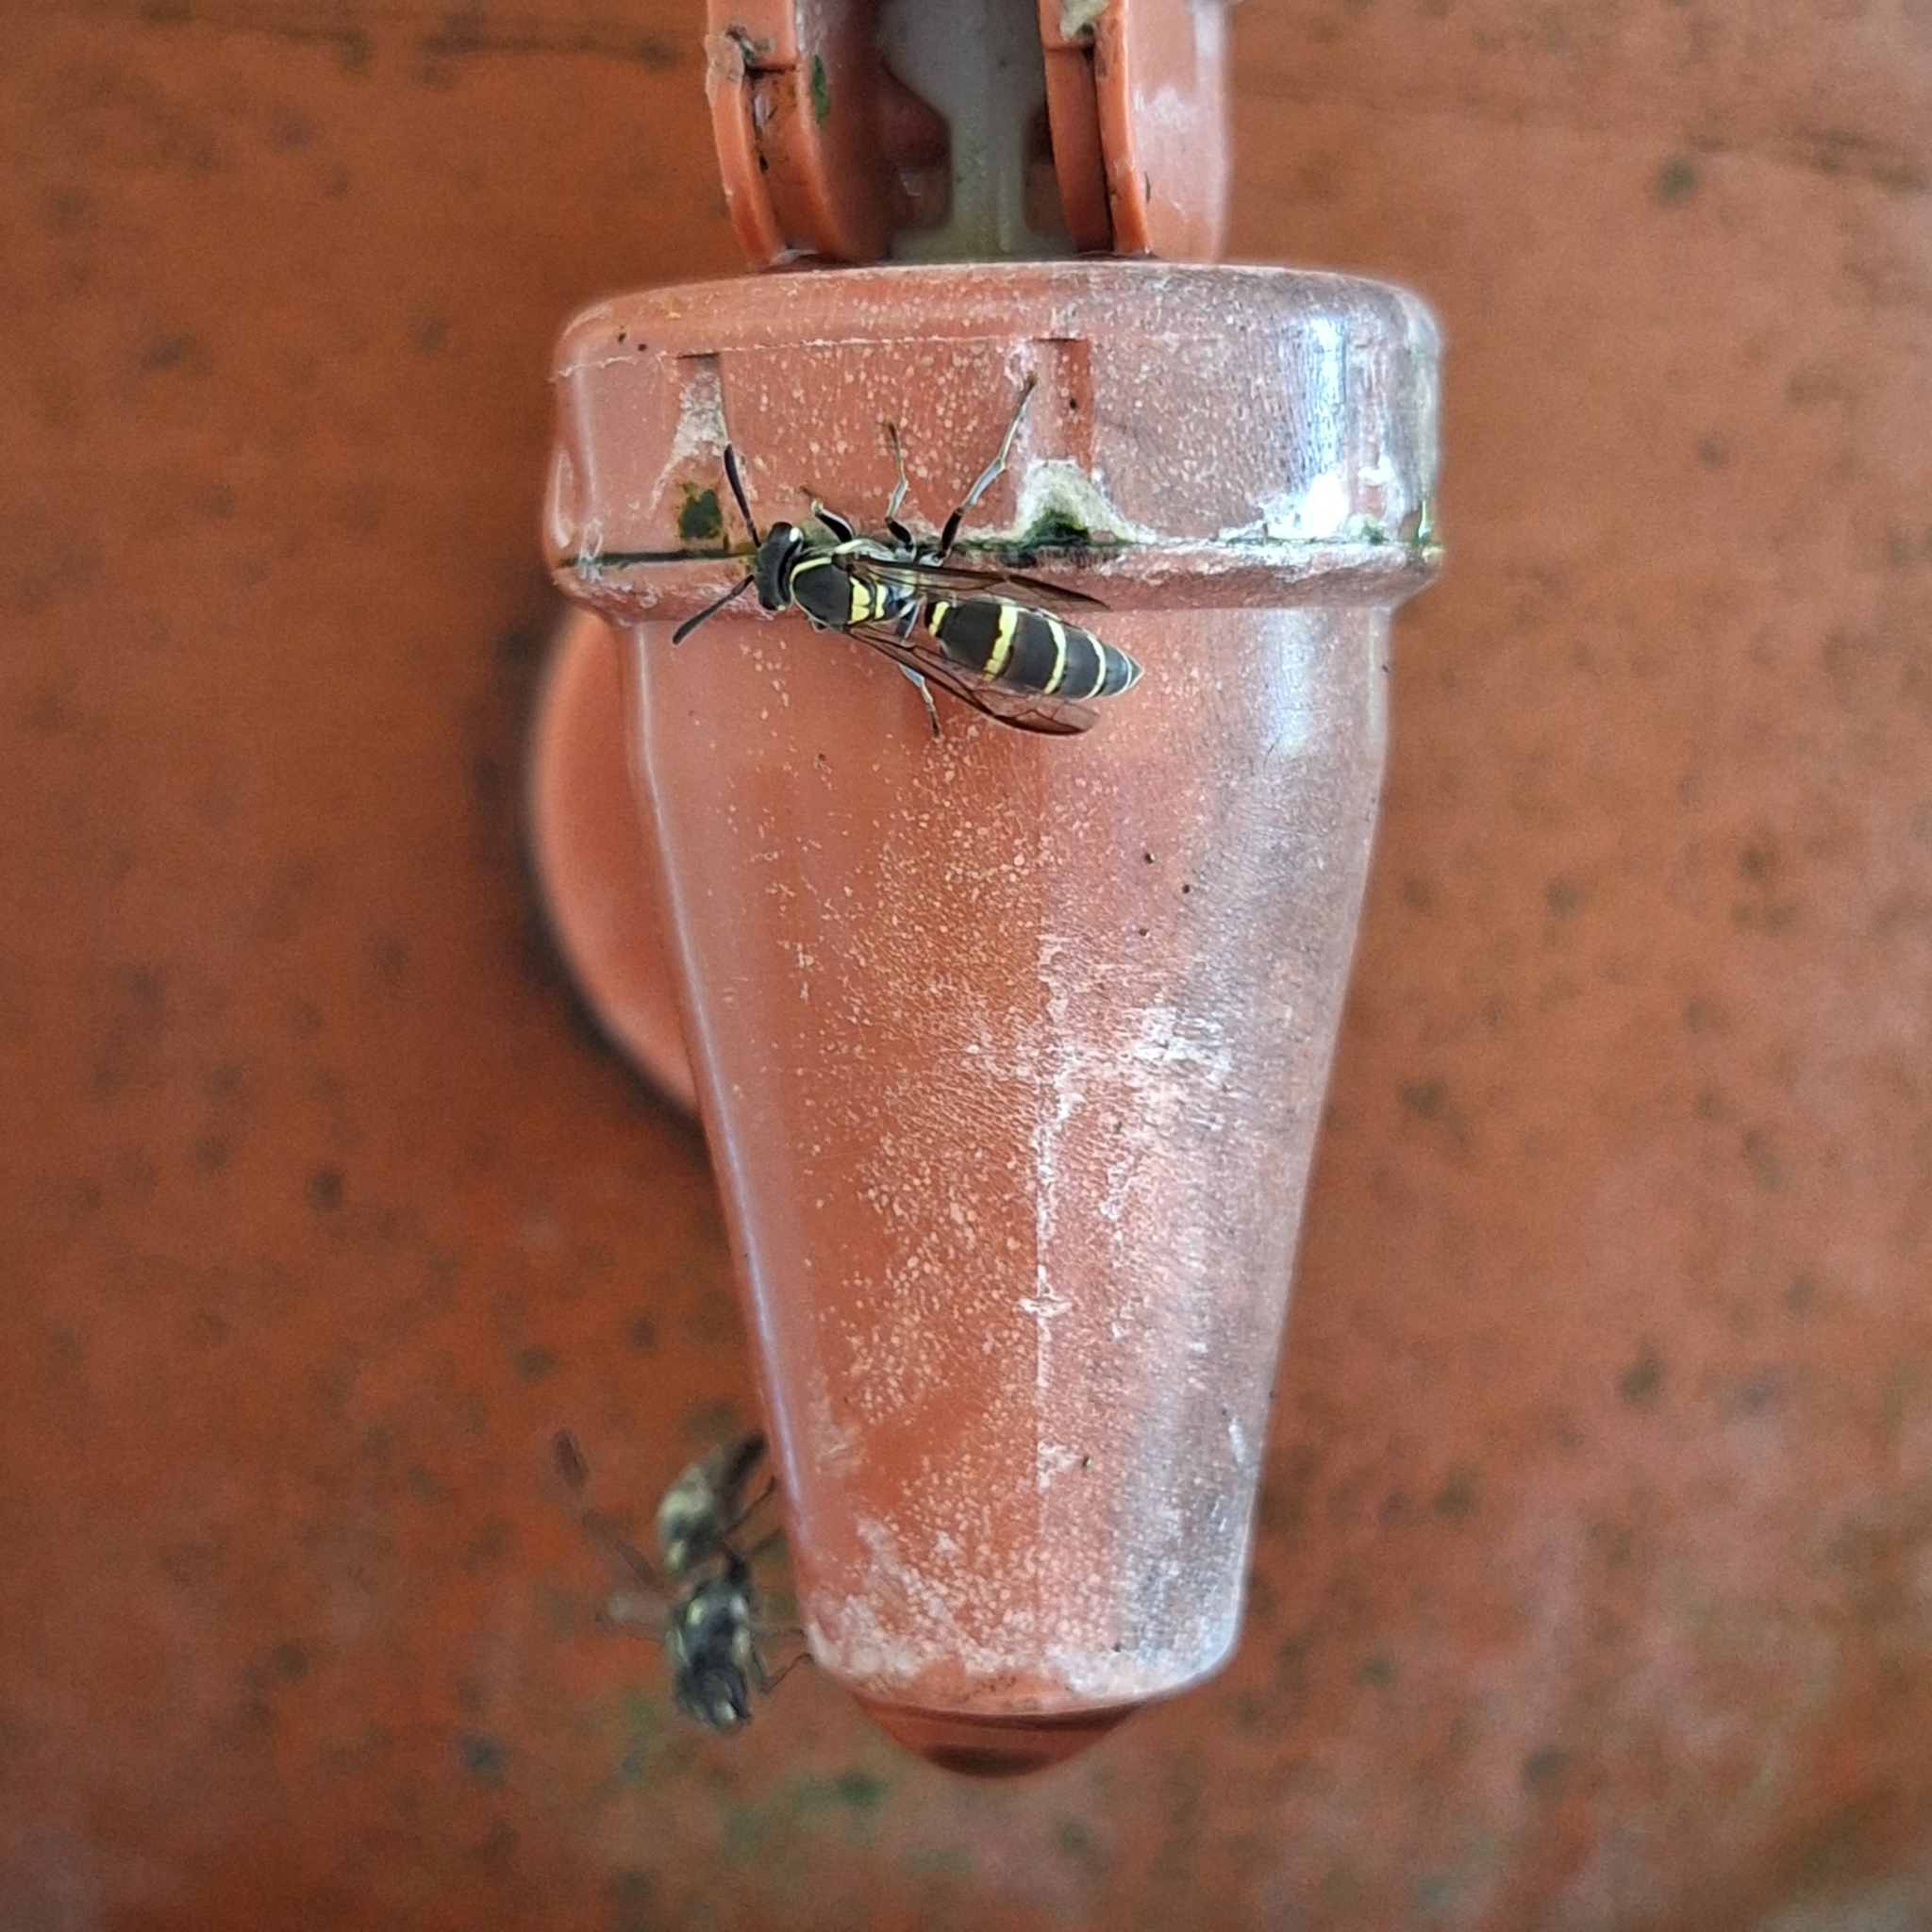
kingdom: Animalia
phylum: Arthropoda
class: Insecta
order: Hymenoptera
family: Eumenidae
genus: Polybia
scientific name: Polybia occidentalis
